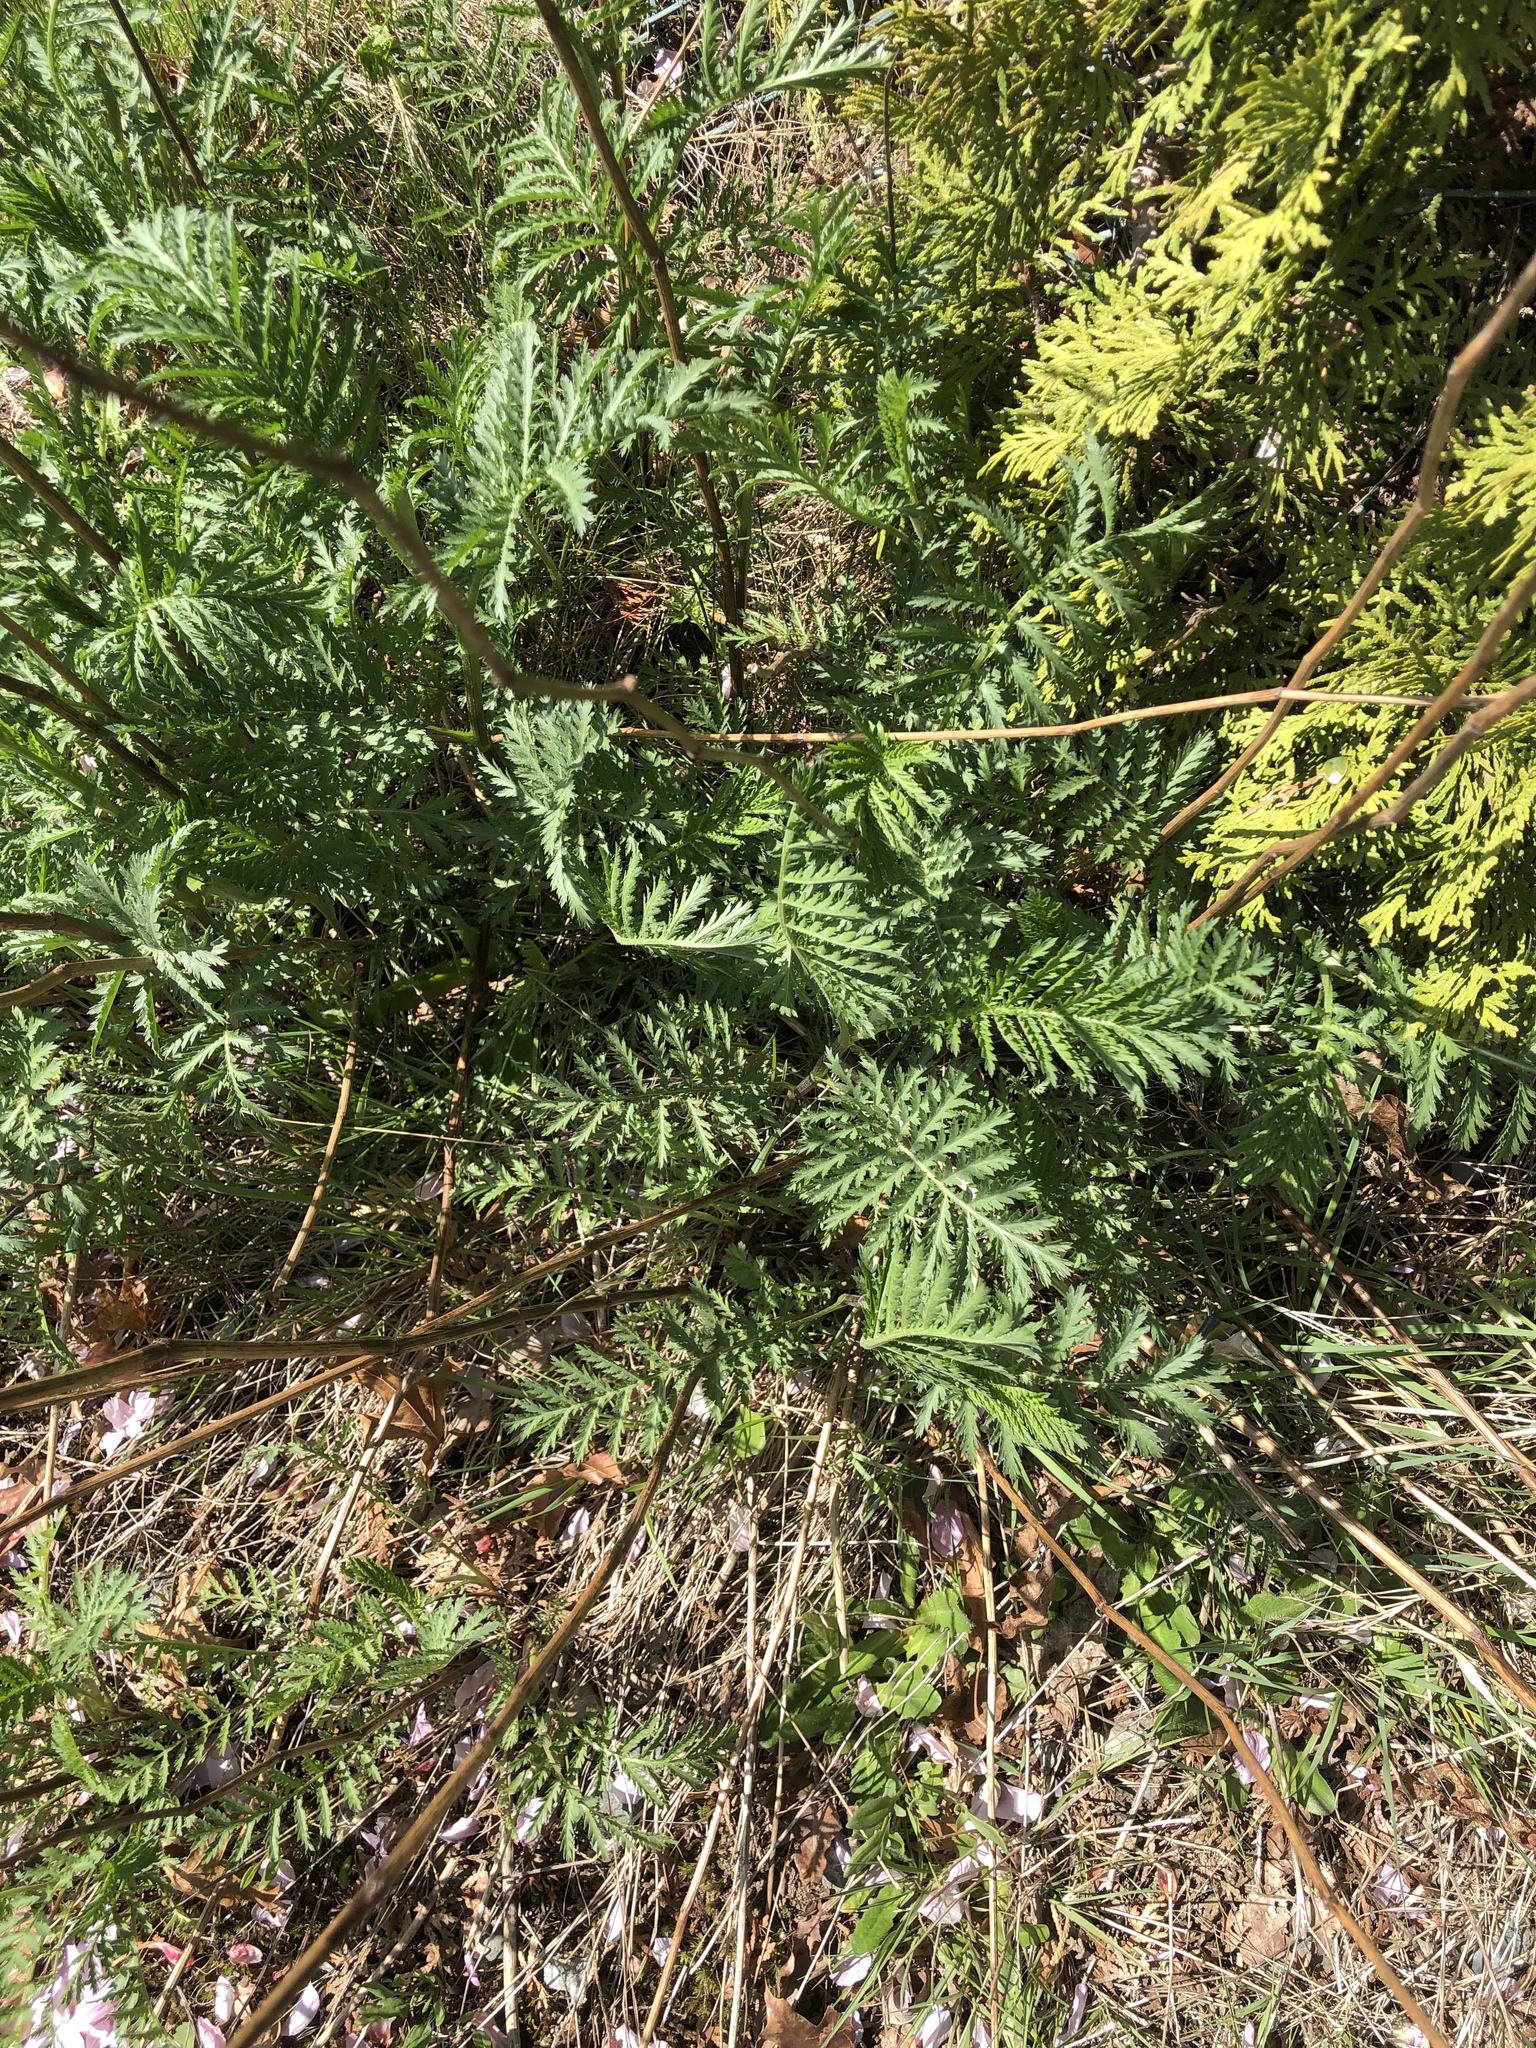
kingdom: Plantae
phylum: Tracheophyta
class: Magnoliopsida
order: Asterales
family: Asteraceae
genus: Tanacetum
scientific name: Tanacetum vulgare
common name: Common tansy
